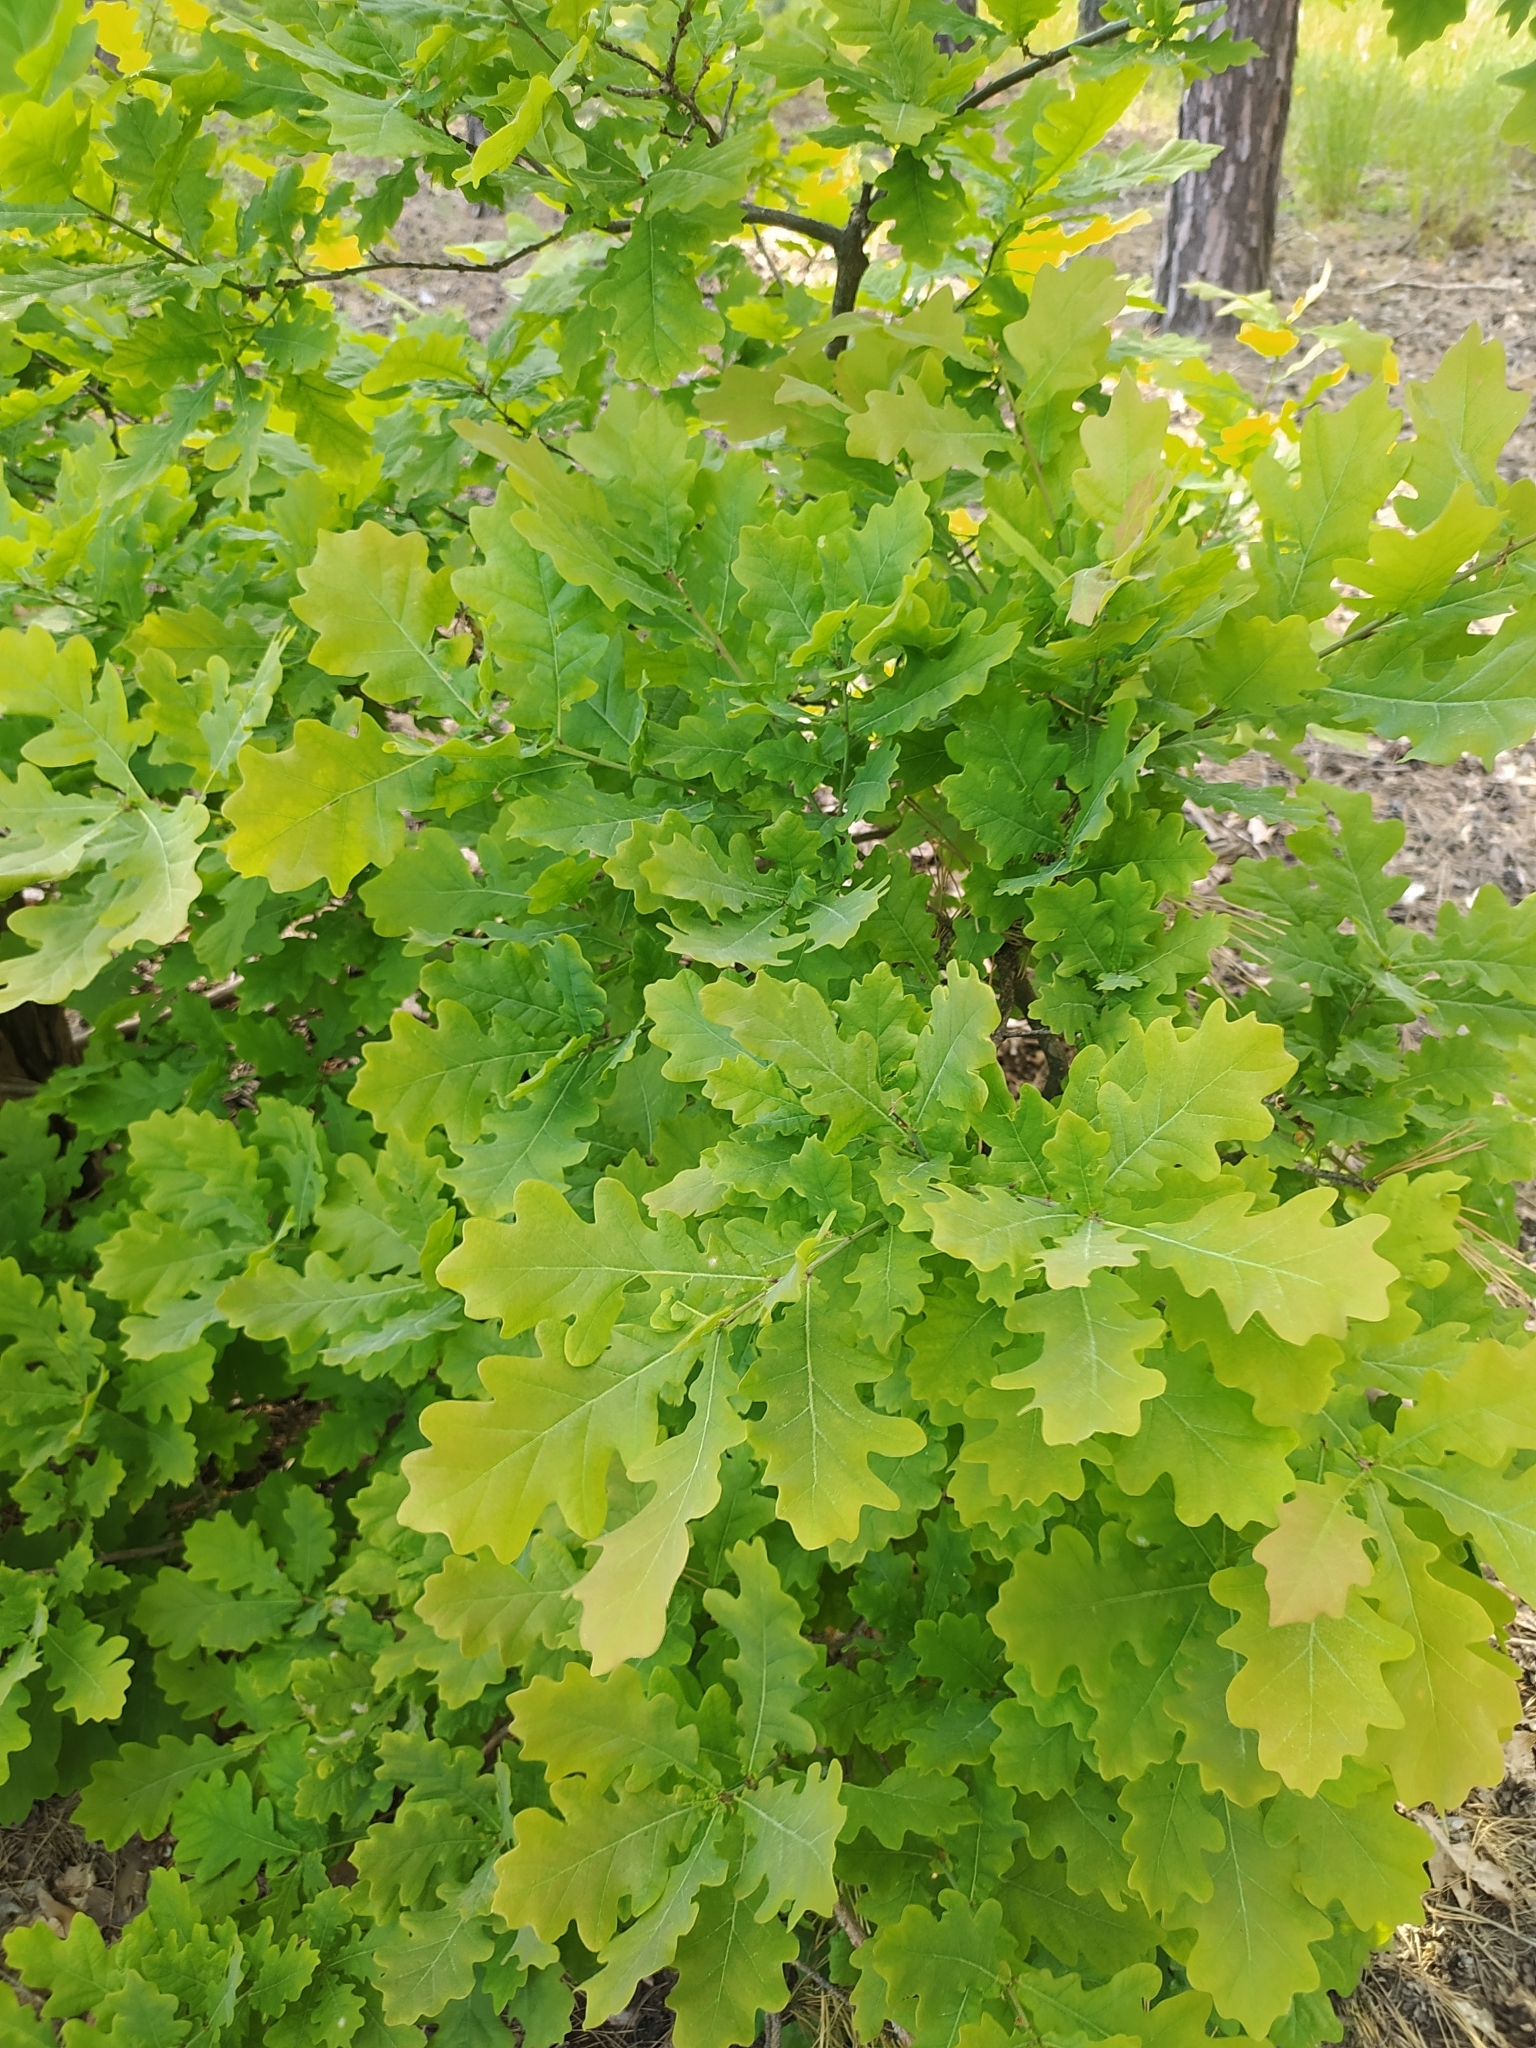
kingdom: Plantae
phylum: Tracheophyta
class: Magnoliopsida
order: Fagales
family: Fagaceae
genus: Quercus
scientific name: Quercus robur
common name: Pedunculate oak
